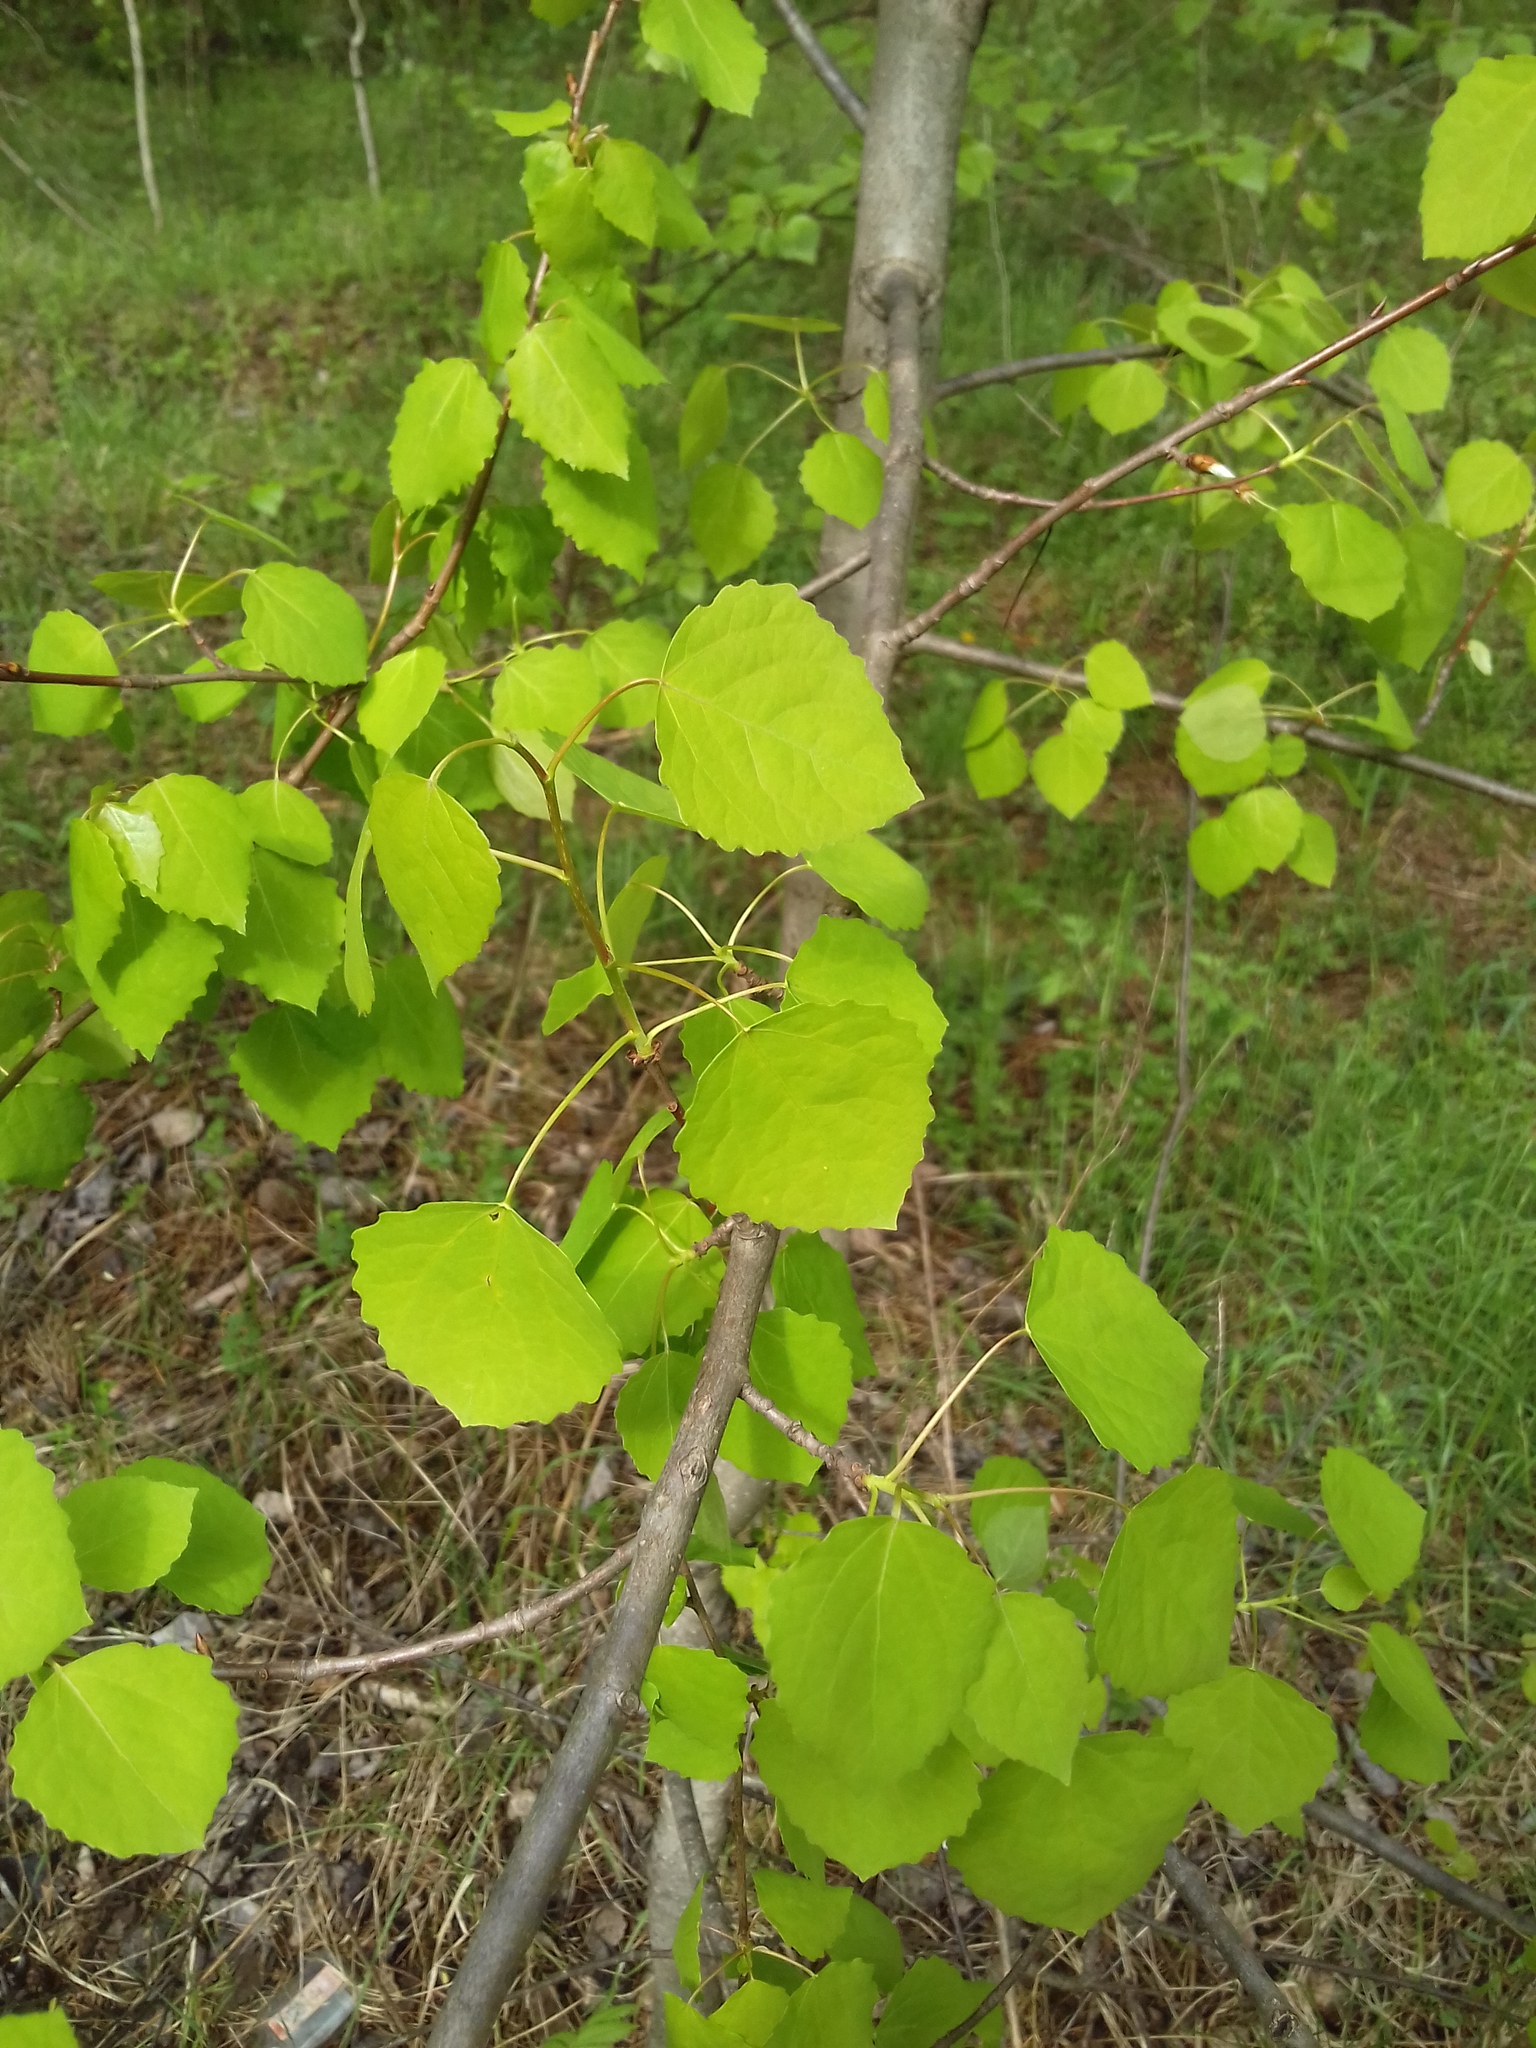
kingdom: Plantae
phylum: Tracheophyta
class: Magnoliopsida
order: Malpighiales
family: Salicaceae
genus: Populus
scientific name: Populus tremula
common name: European aspen
